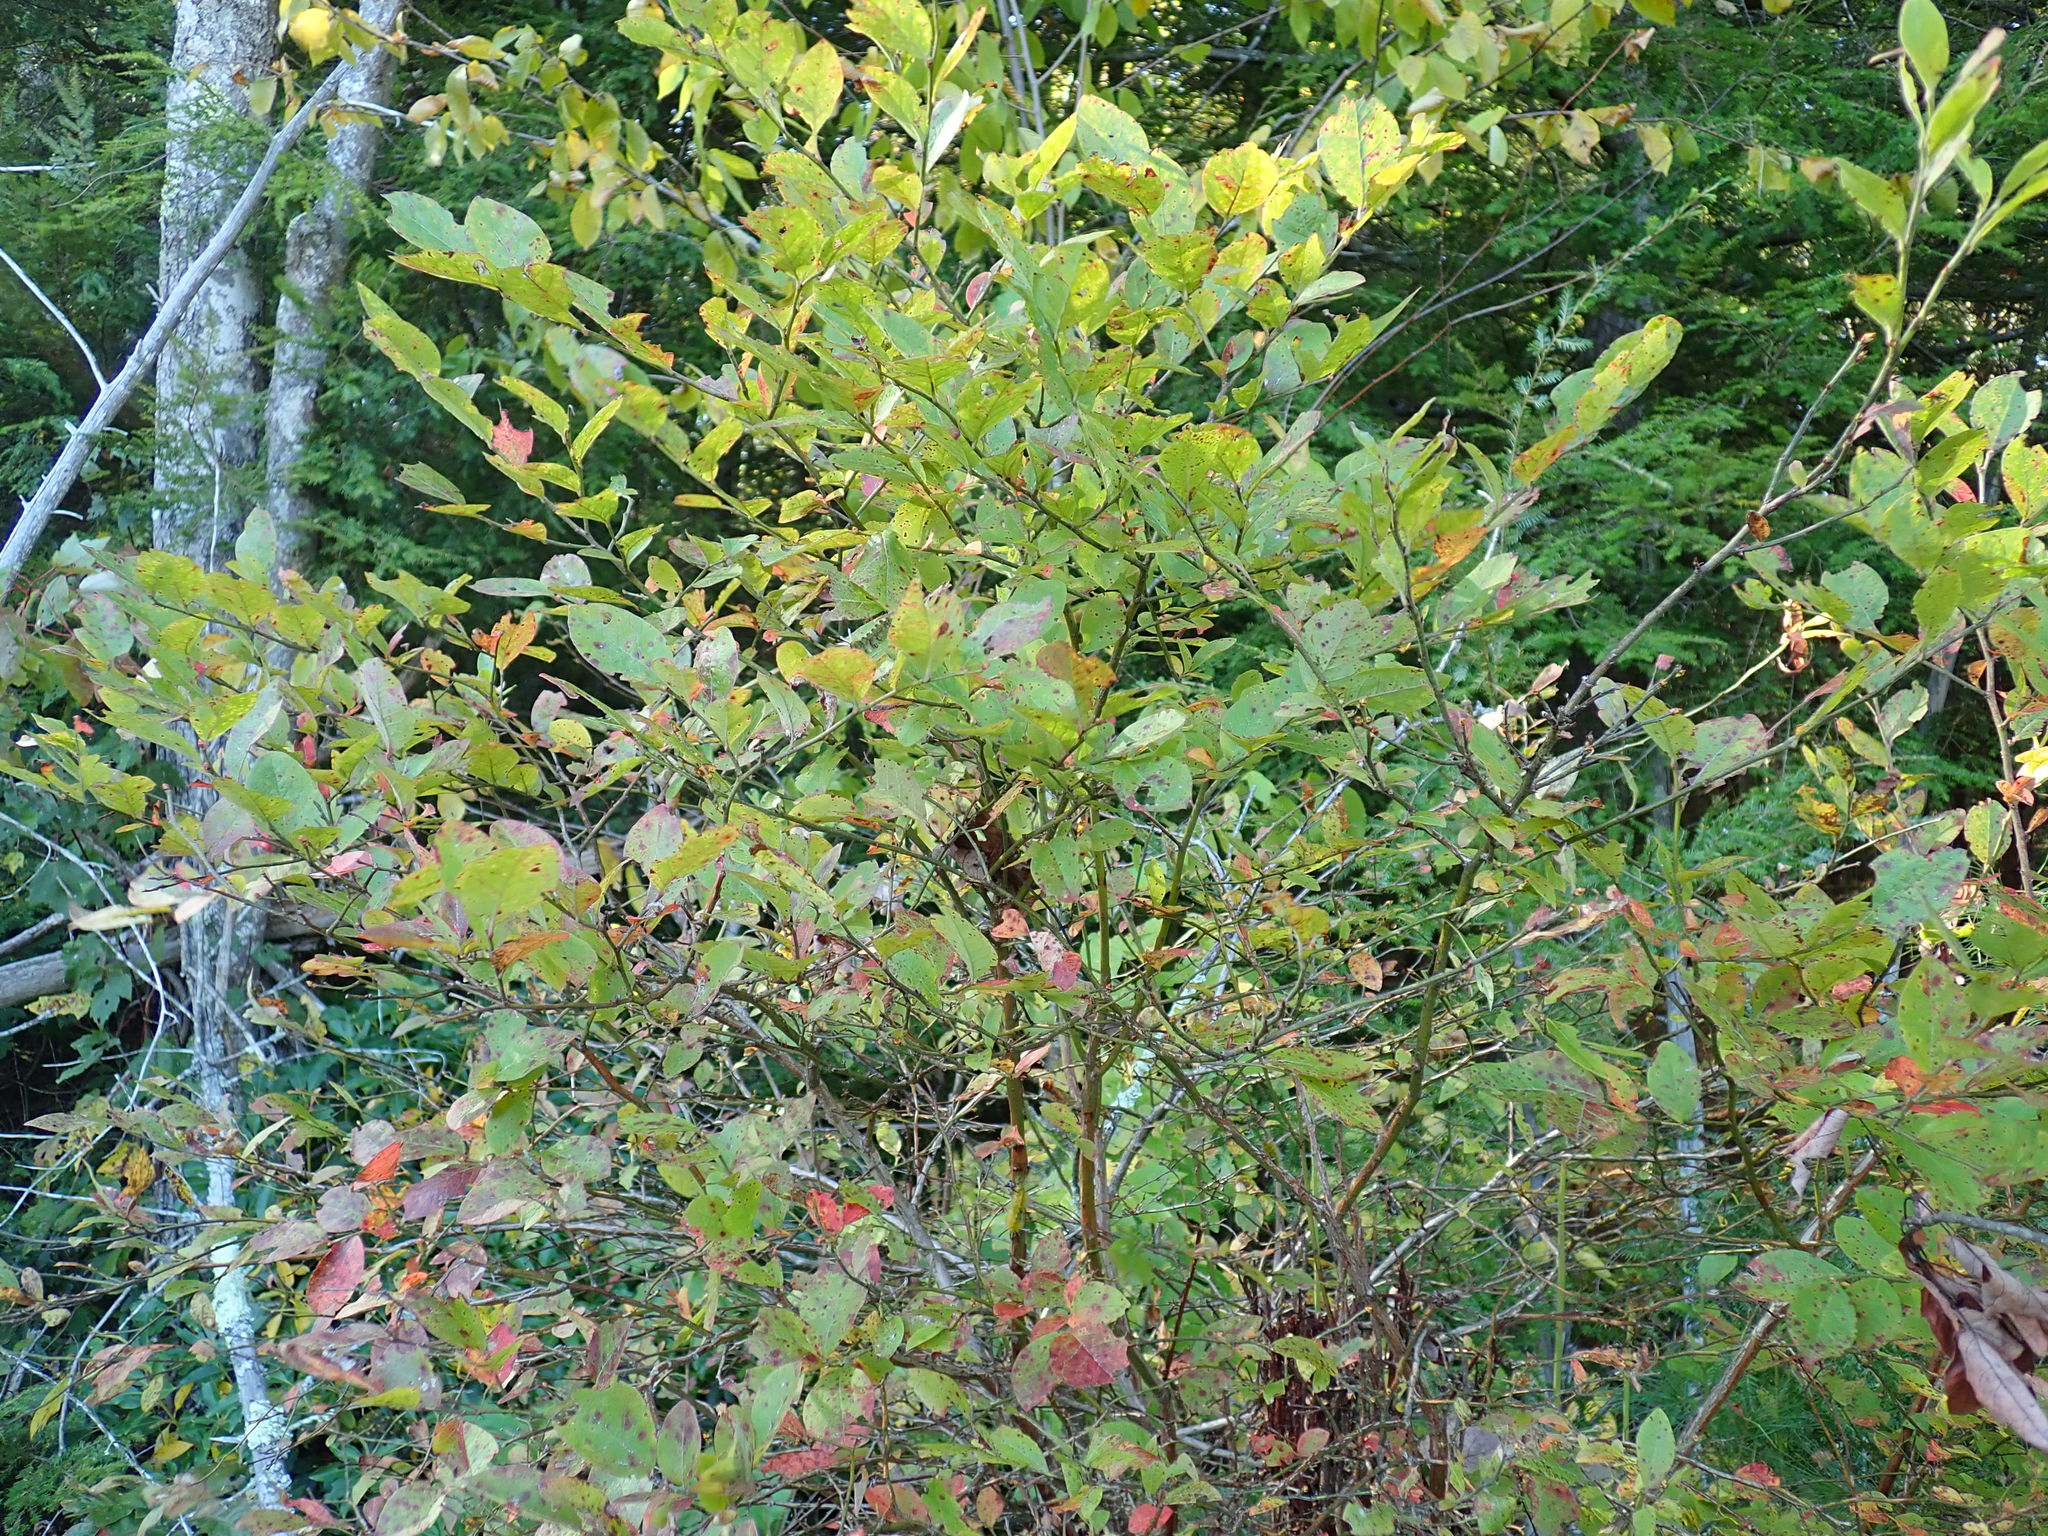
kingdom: Plantae
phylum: Tracheophyta
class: Magnoliopsida
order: Ericales
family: Ericaceae
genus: Vaccinium
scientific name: Vaccinium corymbosum
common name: Blueberry
